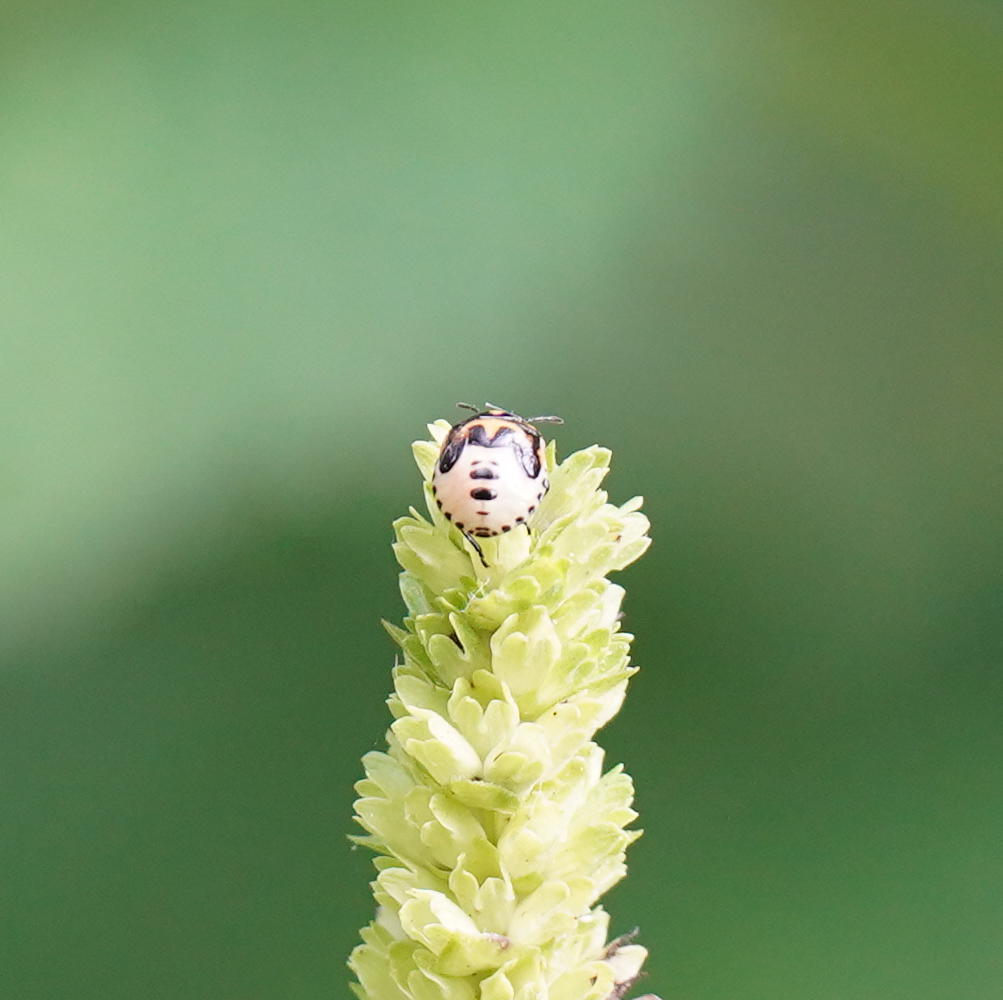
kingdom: Animalia
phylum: Arthropoda
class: Insecta
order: Hemiptera
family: Pentatomidae
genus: Cosmopepla
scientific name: Cosmopepla lintneriana
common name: Twice-stabbed stink bug
